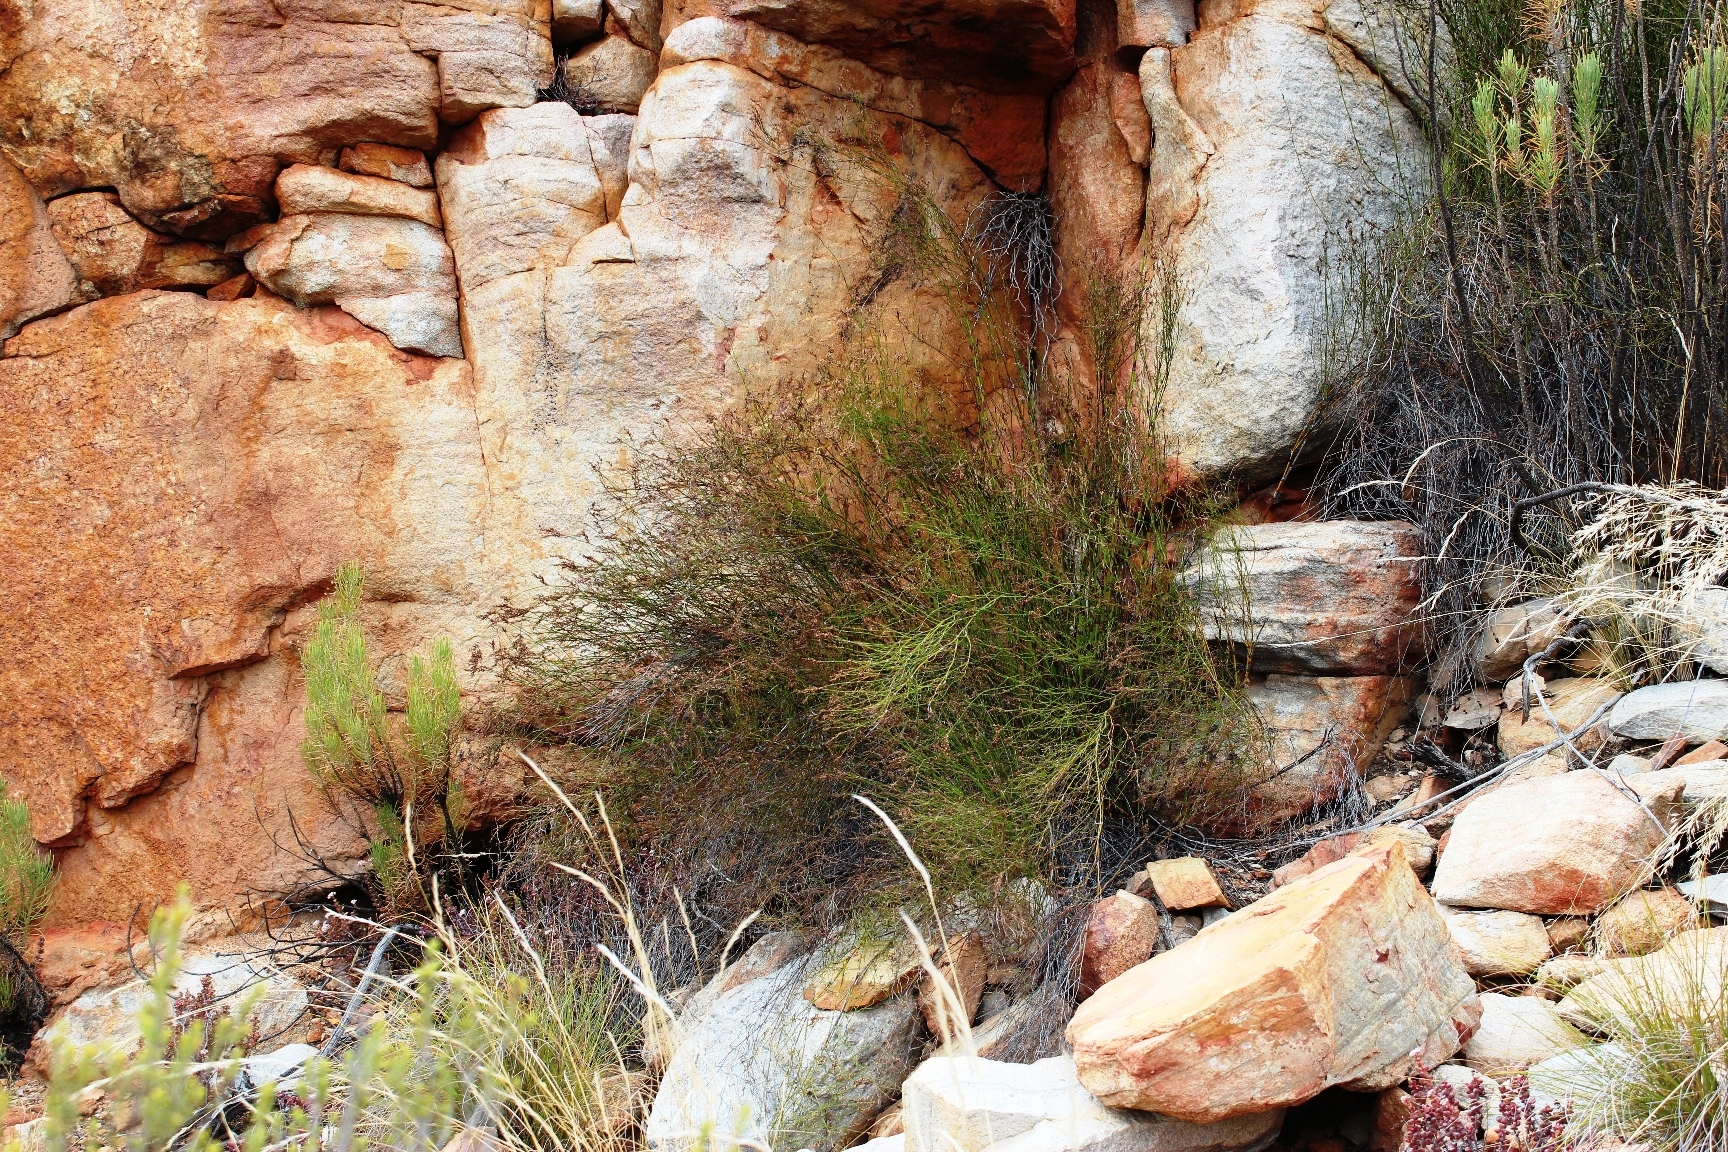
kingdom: Plantae
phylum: Tracheophyta
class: Liliopsida
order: Poales
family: Restionaceae
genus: Restio
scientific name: Restio gaudichaudianus
